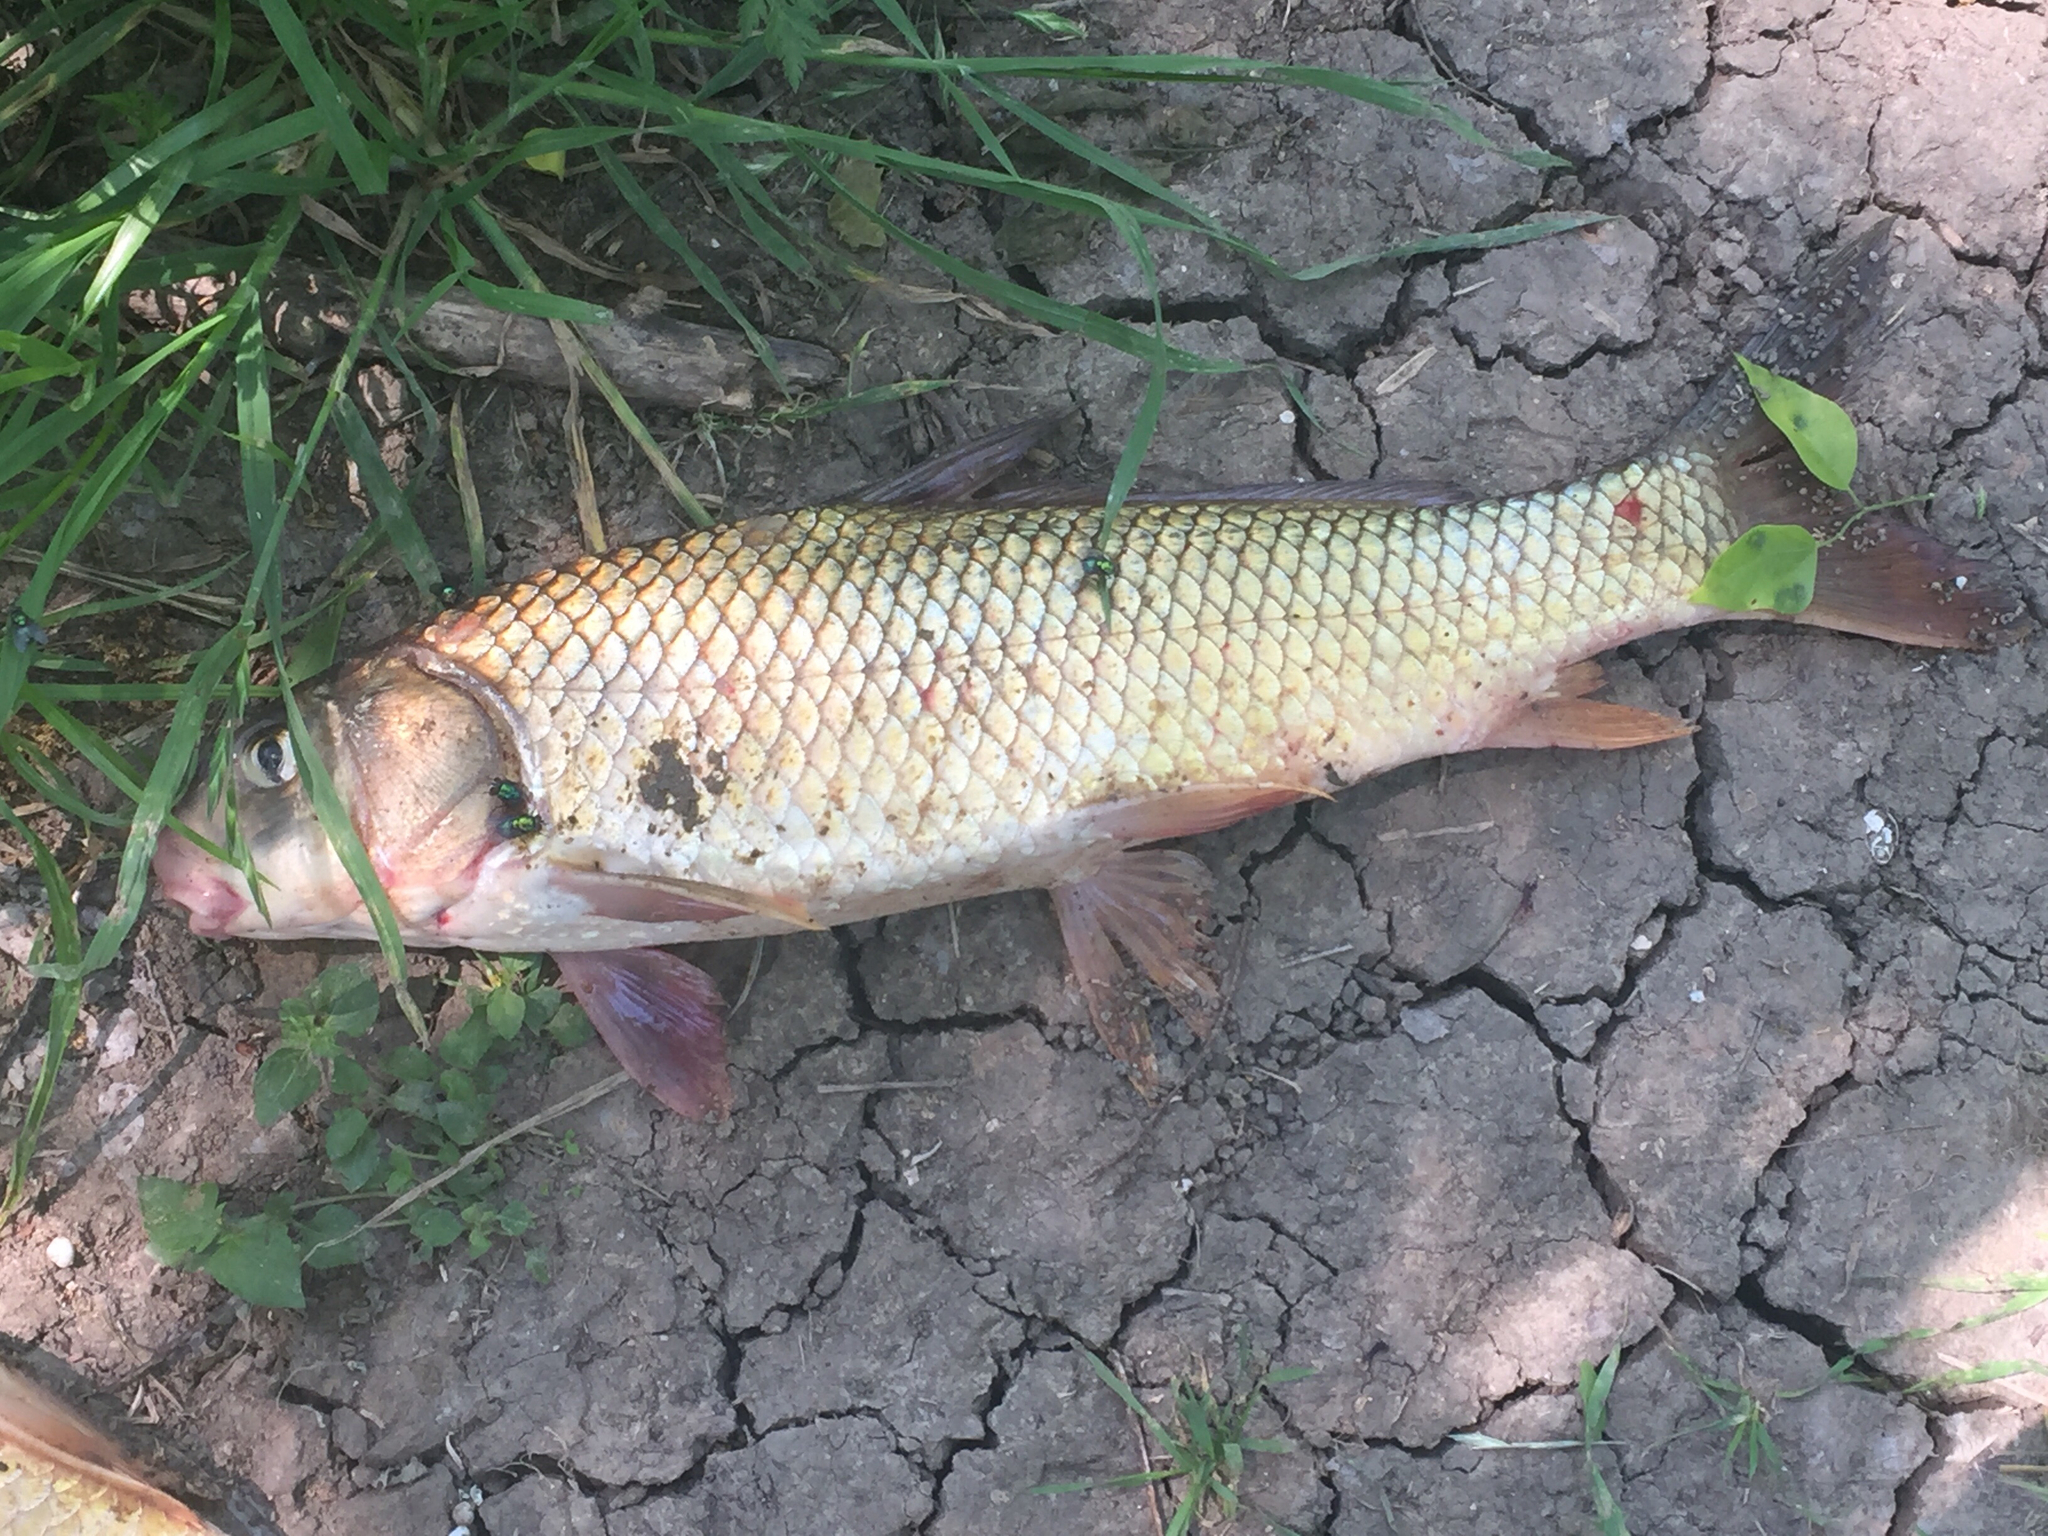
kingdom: Animalia
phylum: Chordata
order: Cypriniformes
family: Catostomidae
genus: Carpiodes
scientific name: Carpiodes carpio
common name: River carpsucker
